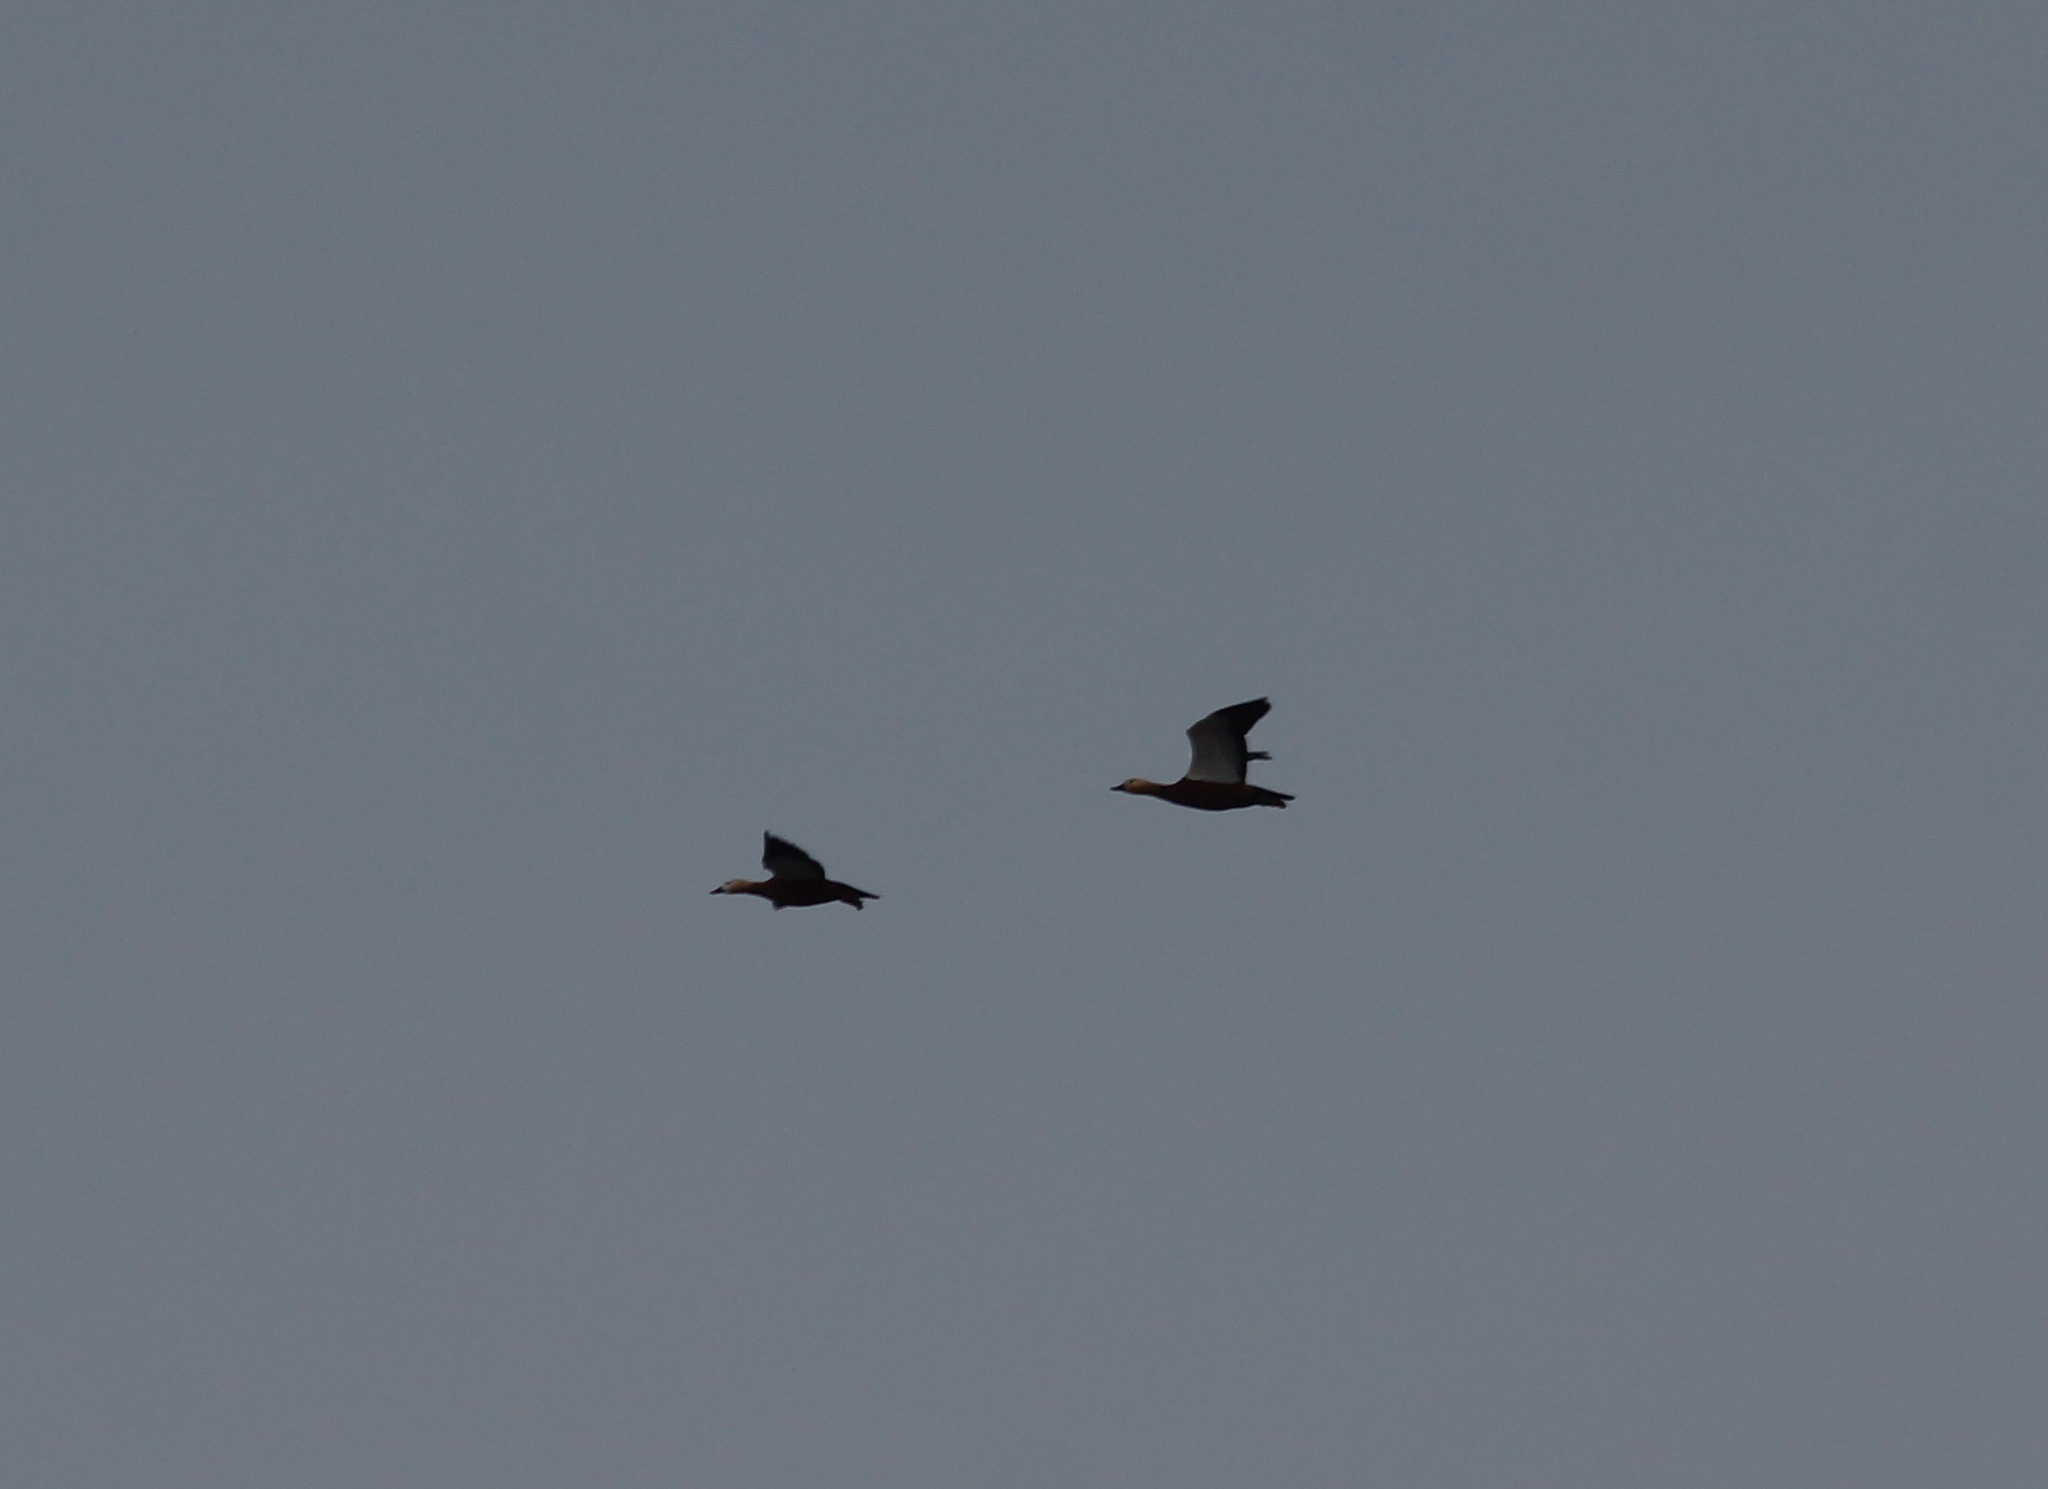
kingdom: Animalia
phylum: Chordata
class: Aves
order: Anseriformes
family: Anatidae
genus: Tadorna
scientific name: Tadorna ferruginea
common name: Ruddy shelduck
